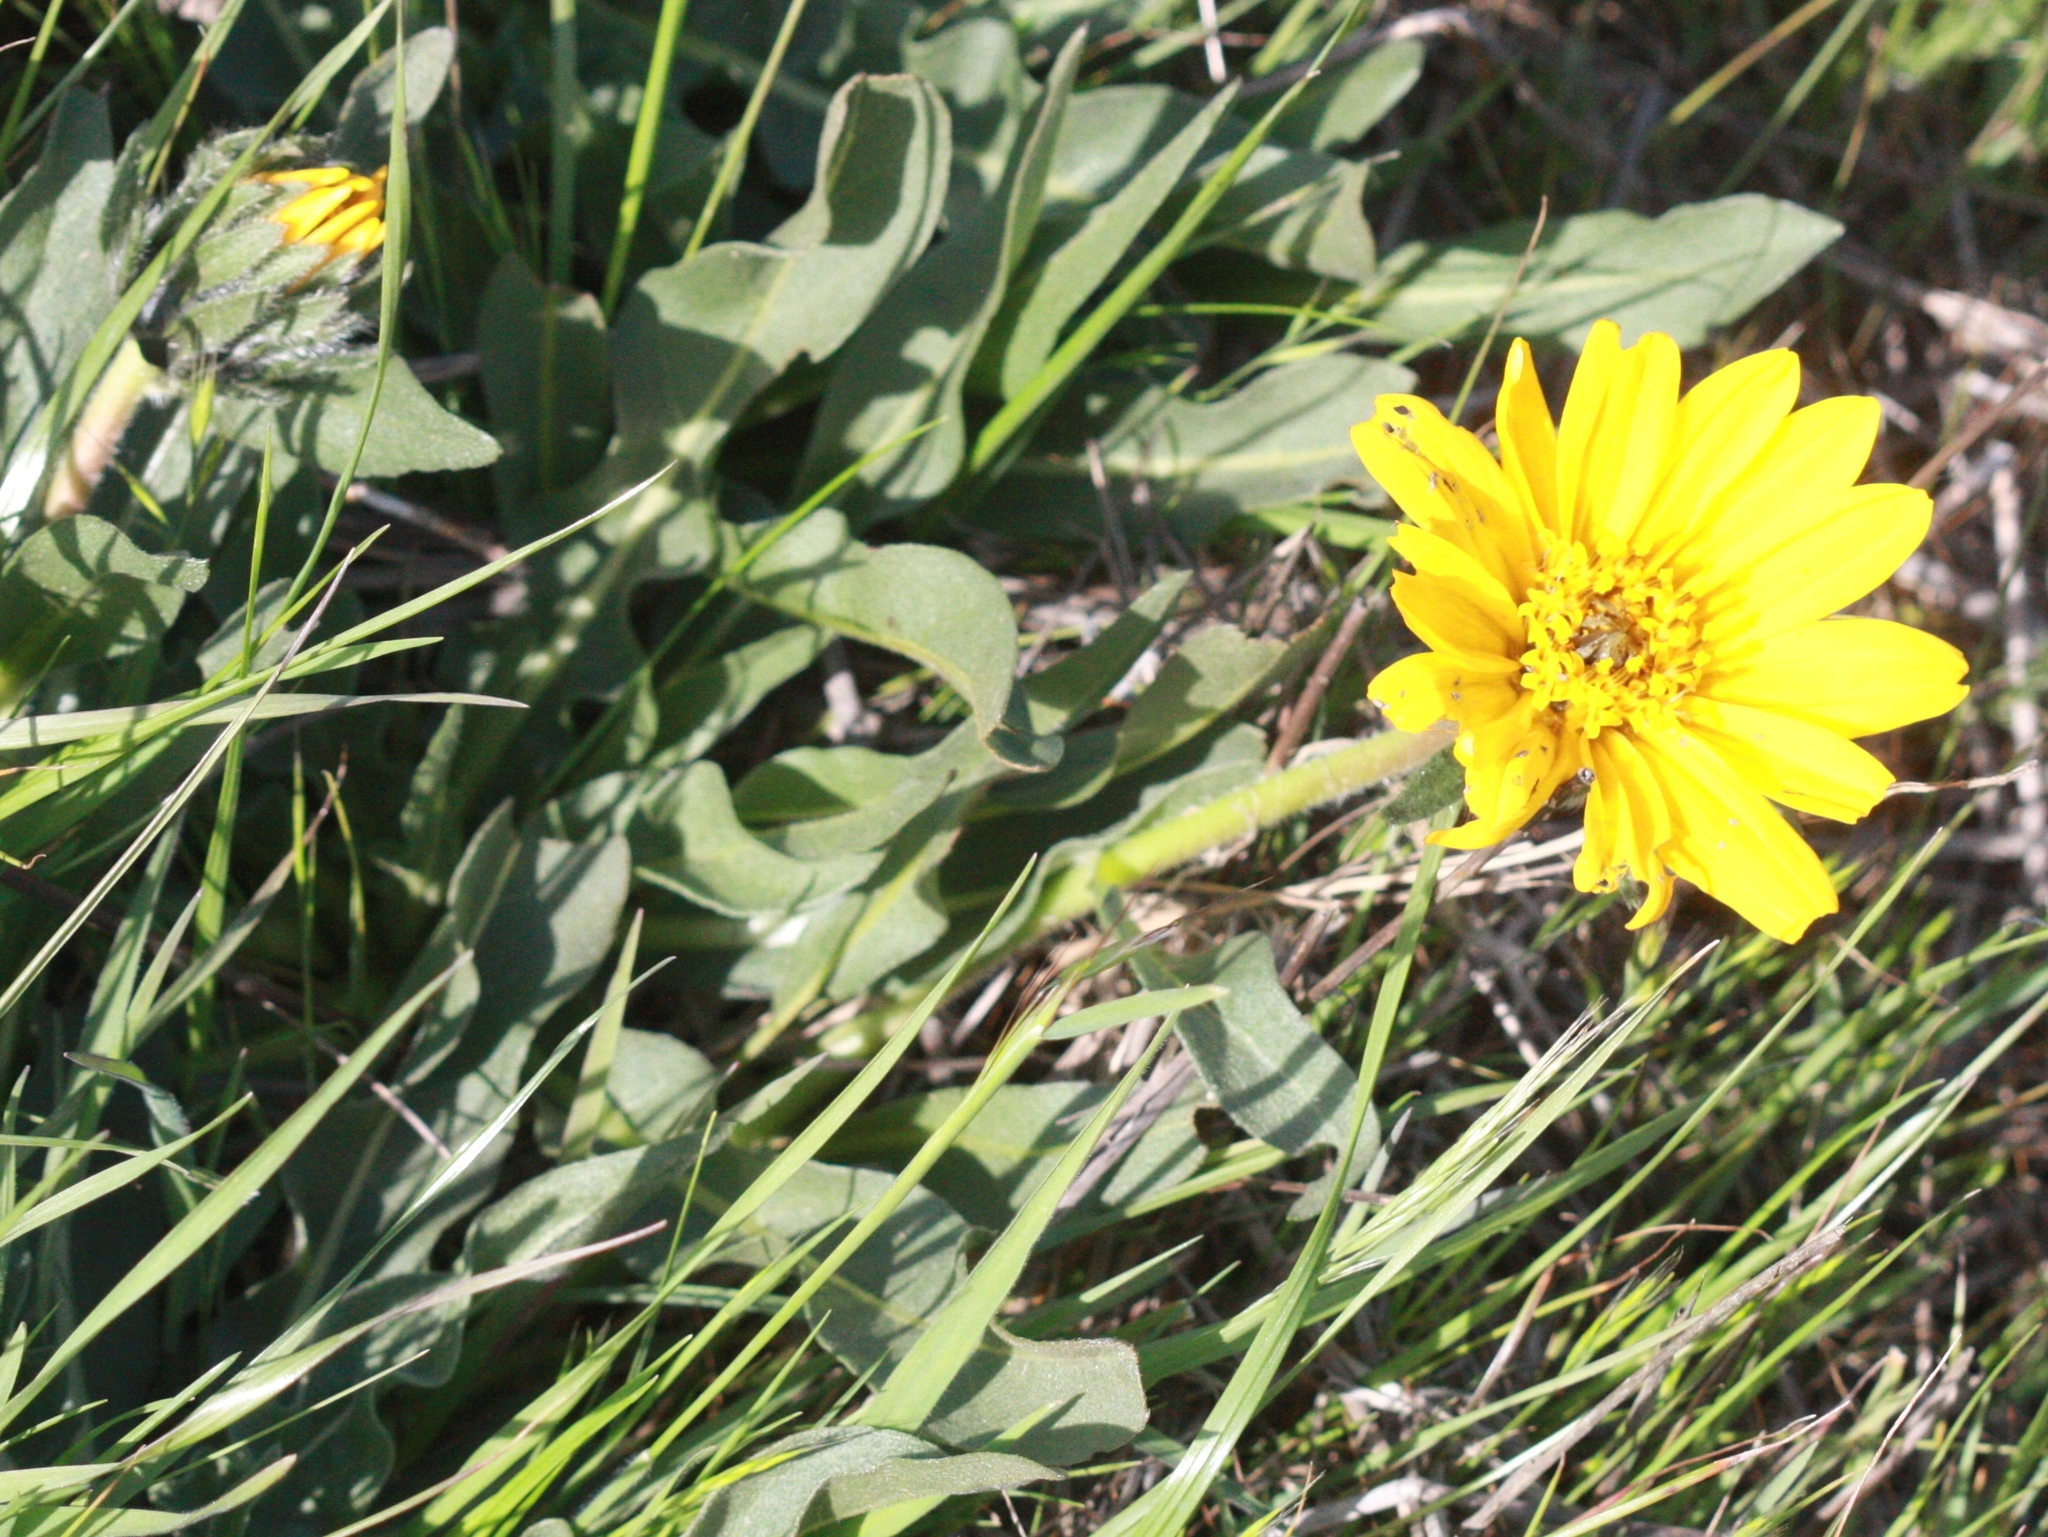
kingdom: Plantae
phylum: Tracheophyta
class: Magnoliopsida
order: Asterales
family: Asteraceae
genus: Wyethia
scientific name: Wyethia angustifolia
